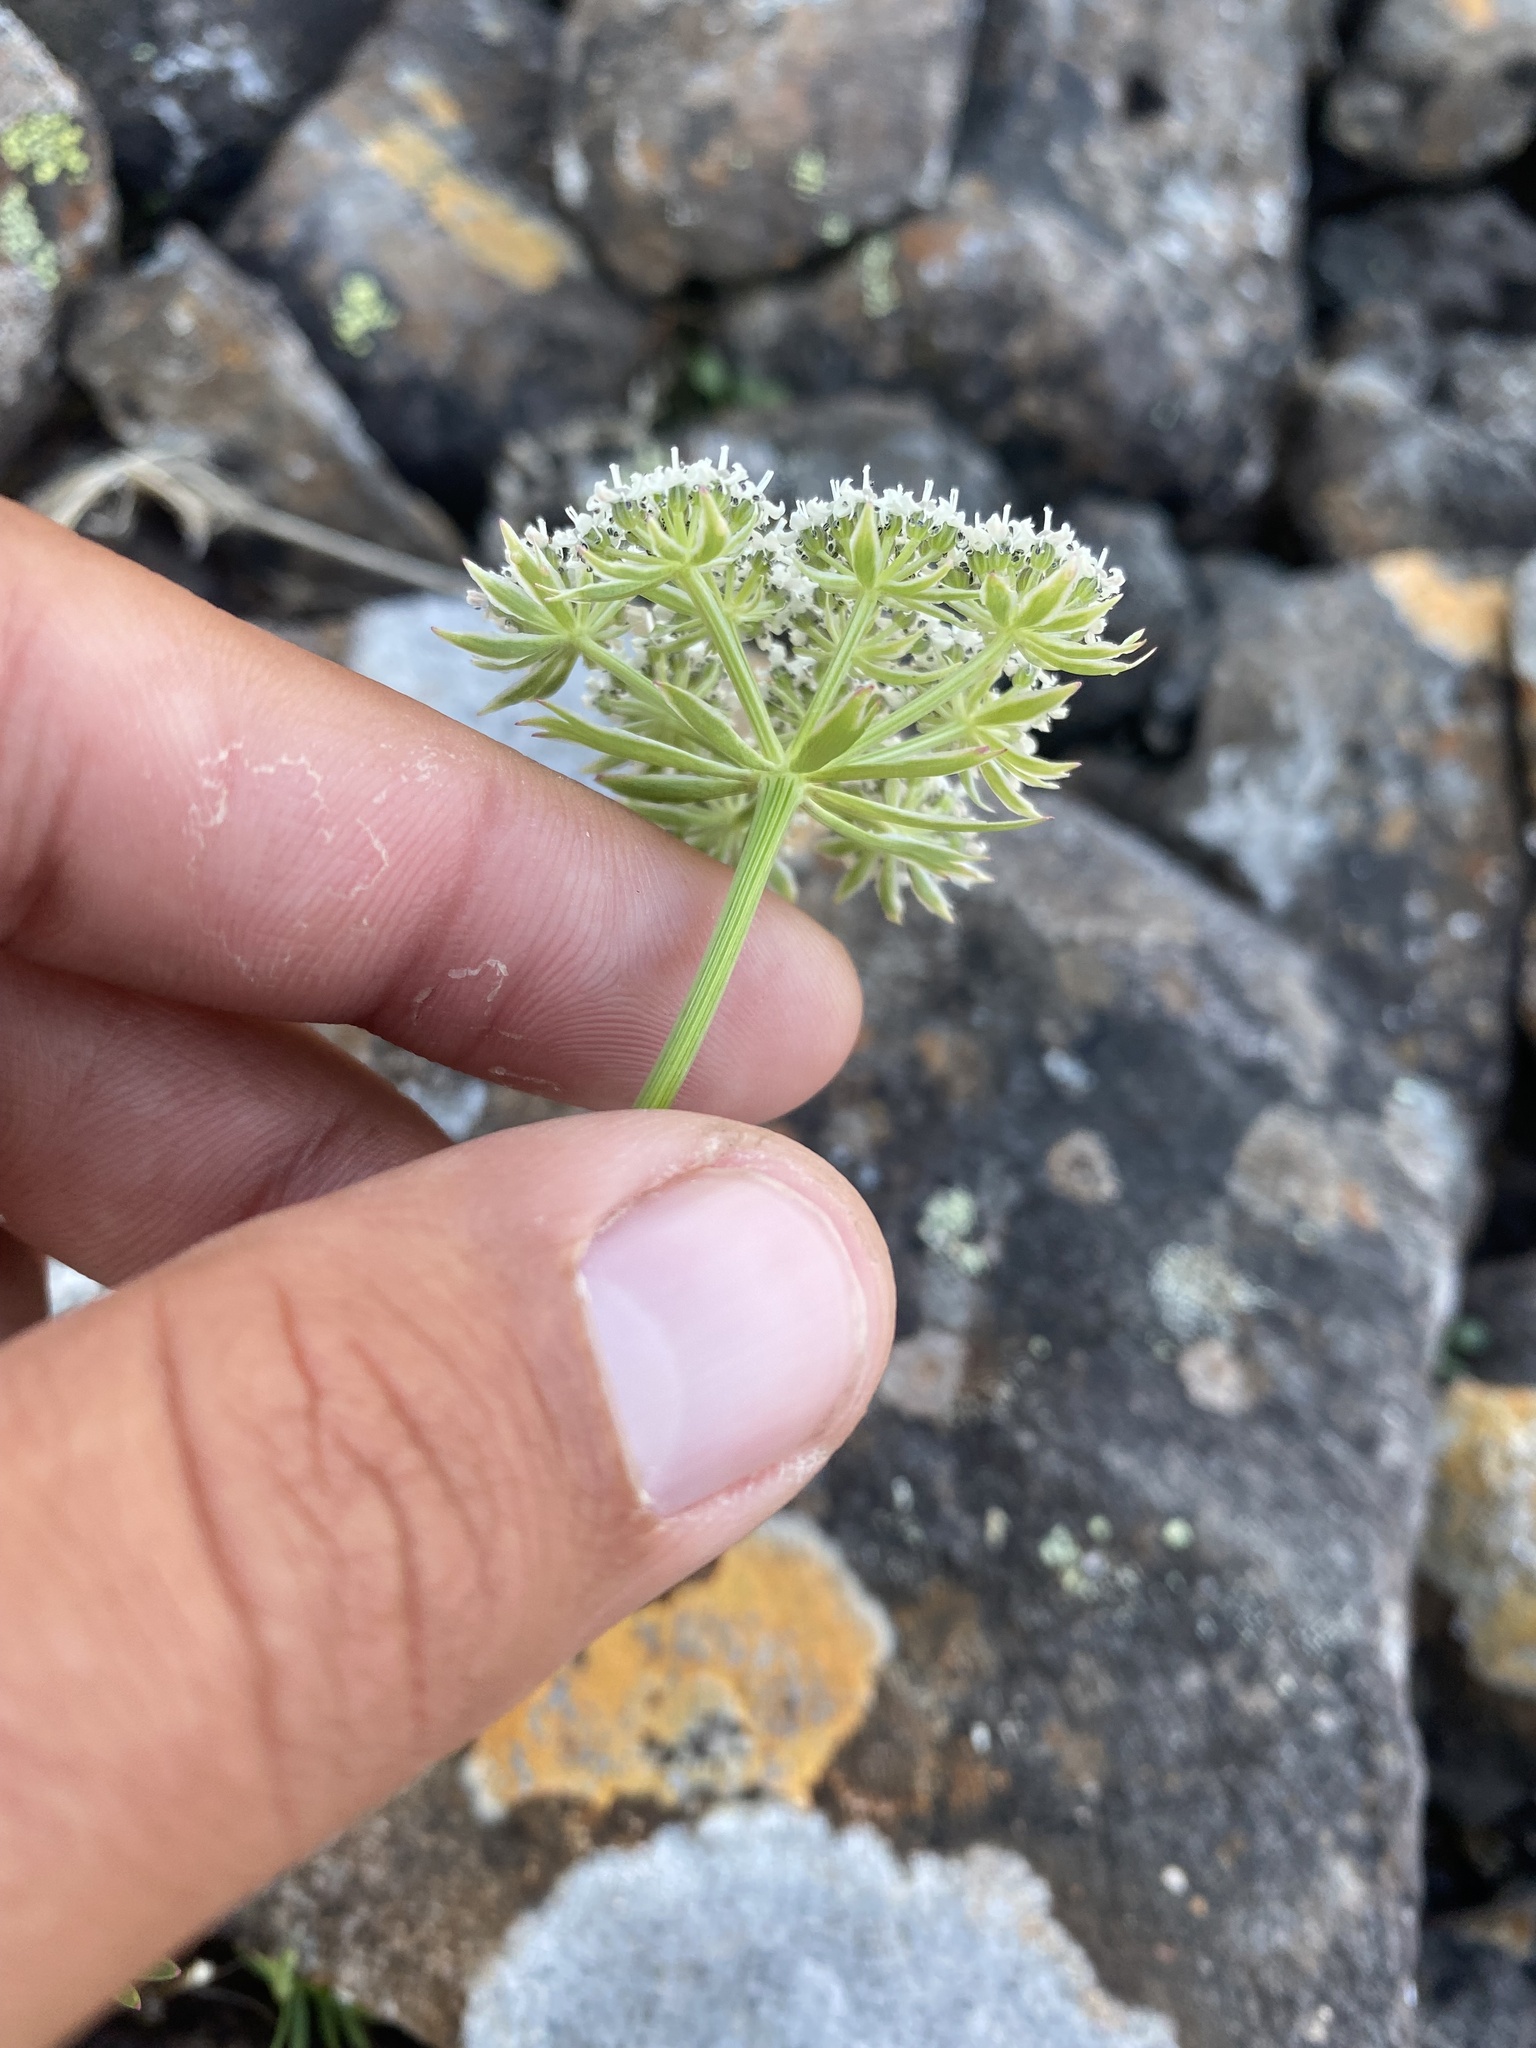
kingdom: Plantae
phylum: Tracheophyta
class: Magnoliopsida
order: Apiales
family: Apiaceae
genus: Pachypleurum
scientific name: Pachypleurum mutellinoides
